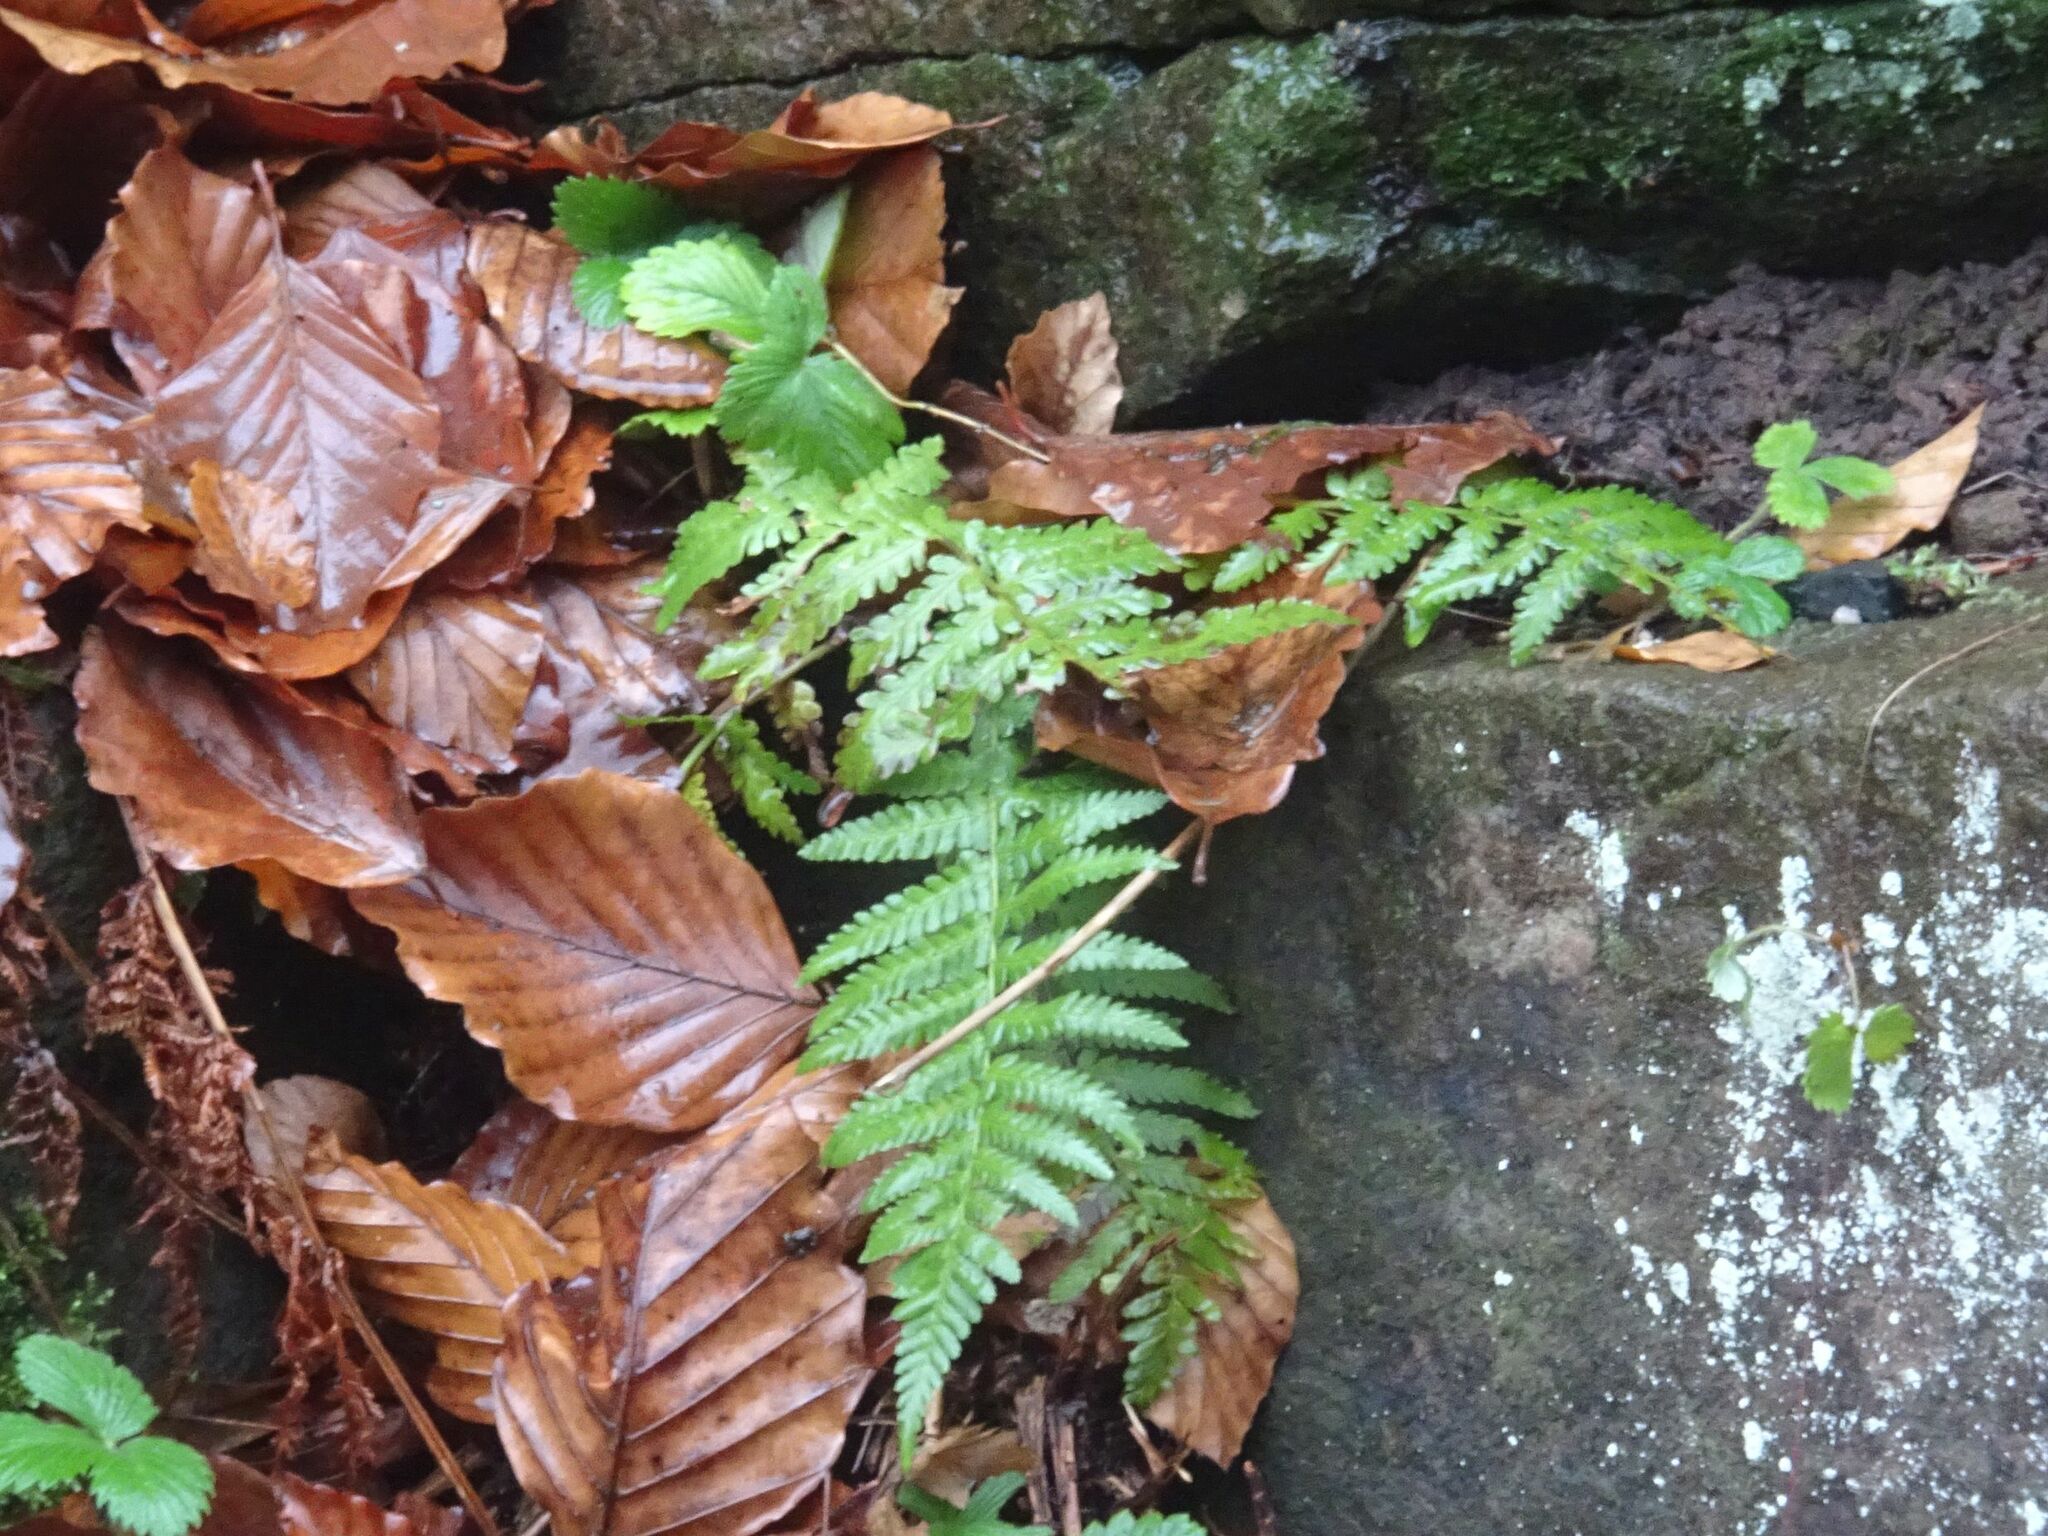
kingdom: Plantae
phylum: Tracheophyta
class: Polypodiopsida
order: Polypodiales
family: Dryopteridaceae
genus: Dryopteris
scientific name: Dryopteris filix-mas
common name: Male fern
